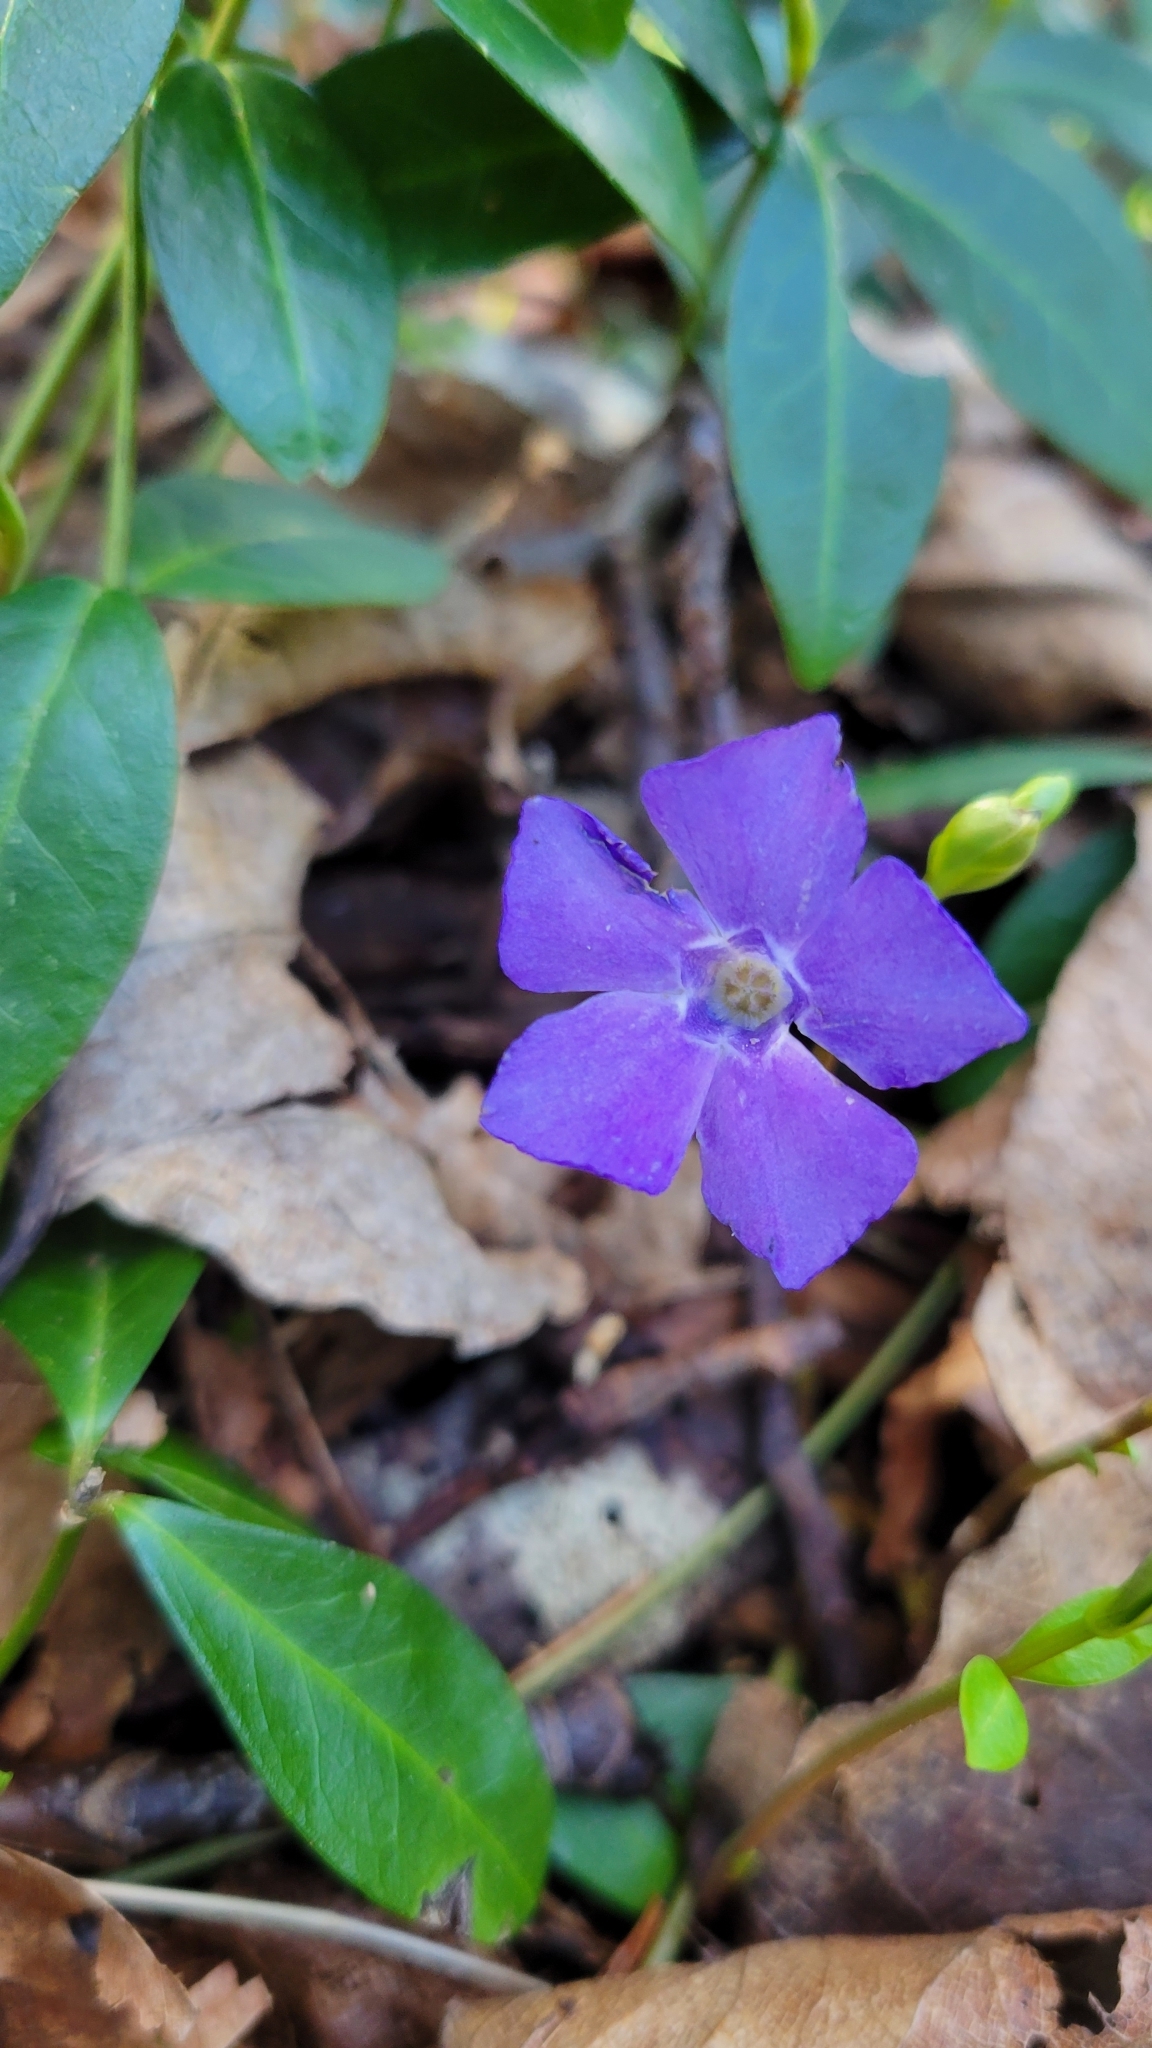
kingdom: Plantae
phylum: Tracheophyta
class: Magnoliopsida
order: Gentianales
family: Apocynaceae
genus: Vinca
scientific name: Vinca minor
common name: Lesser periwinkle
